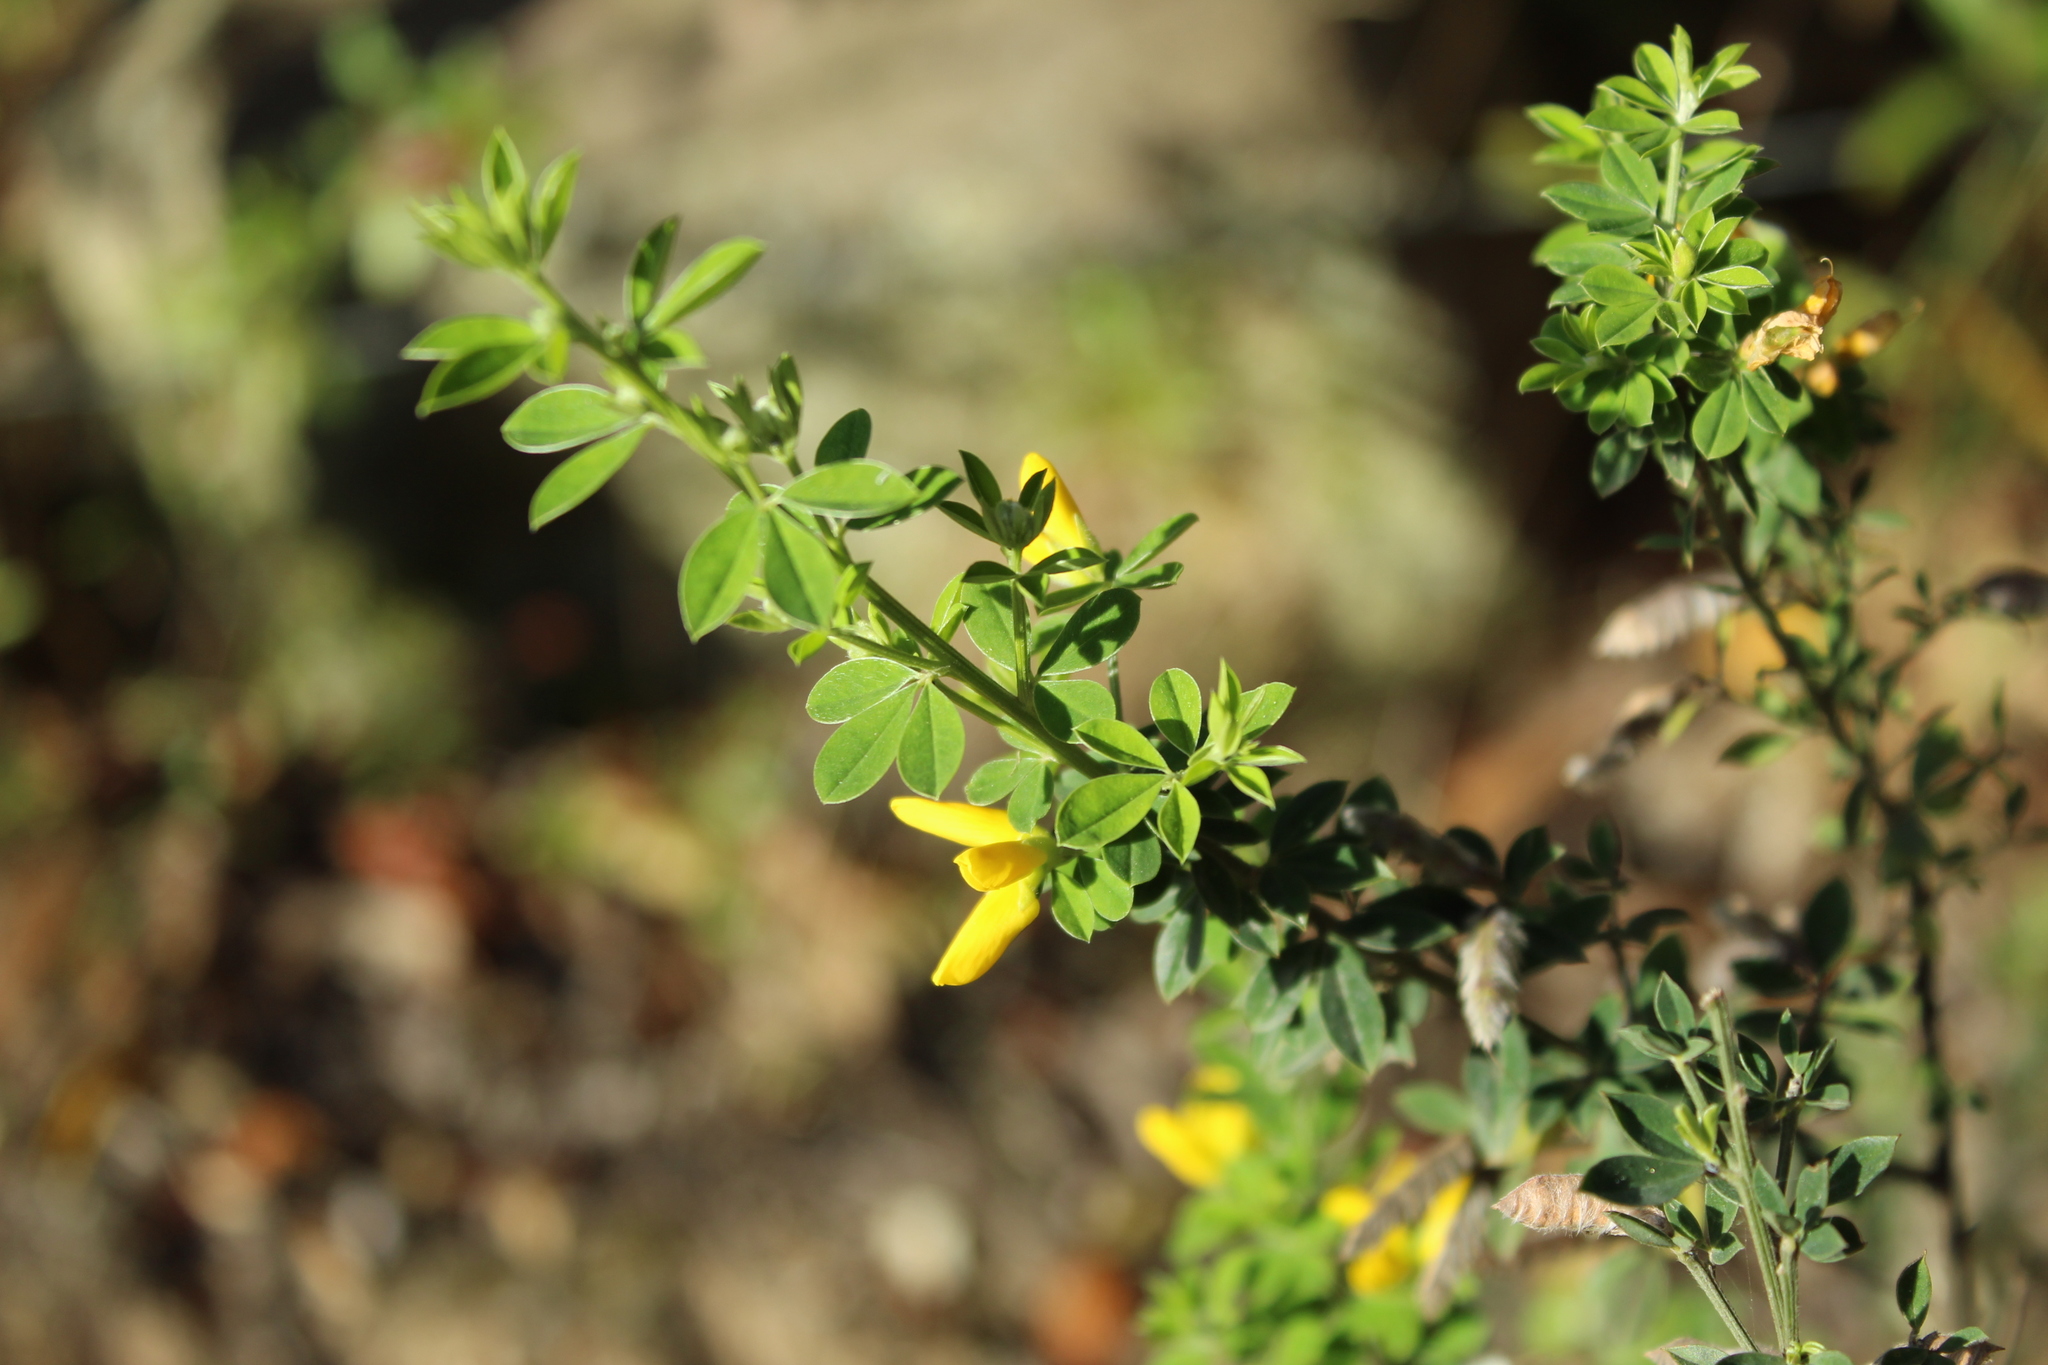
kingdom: Plantae
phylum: Tracheophyta
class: Magnoliopsida
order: Fabales
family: Fabaceae
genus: Genista
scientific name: Genista monspessulana
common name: Montpellier broom
